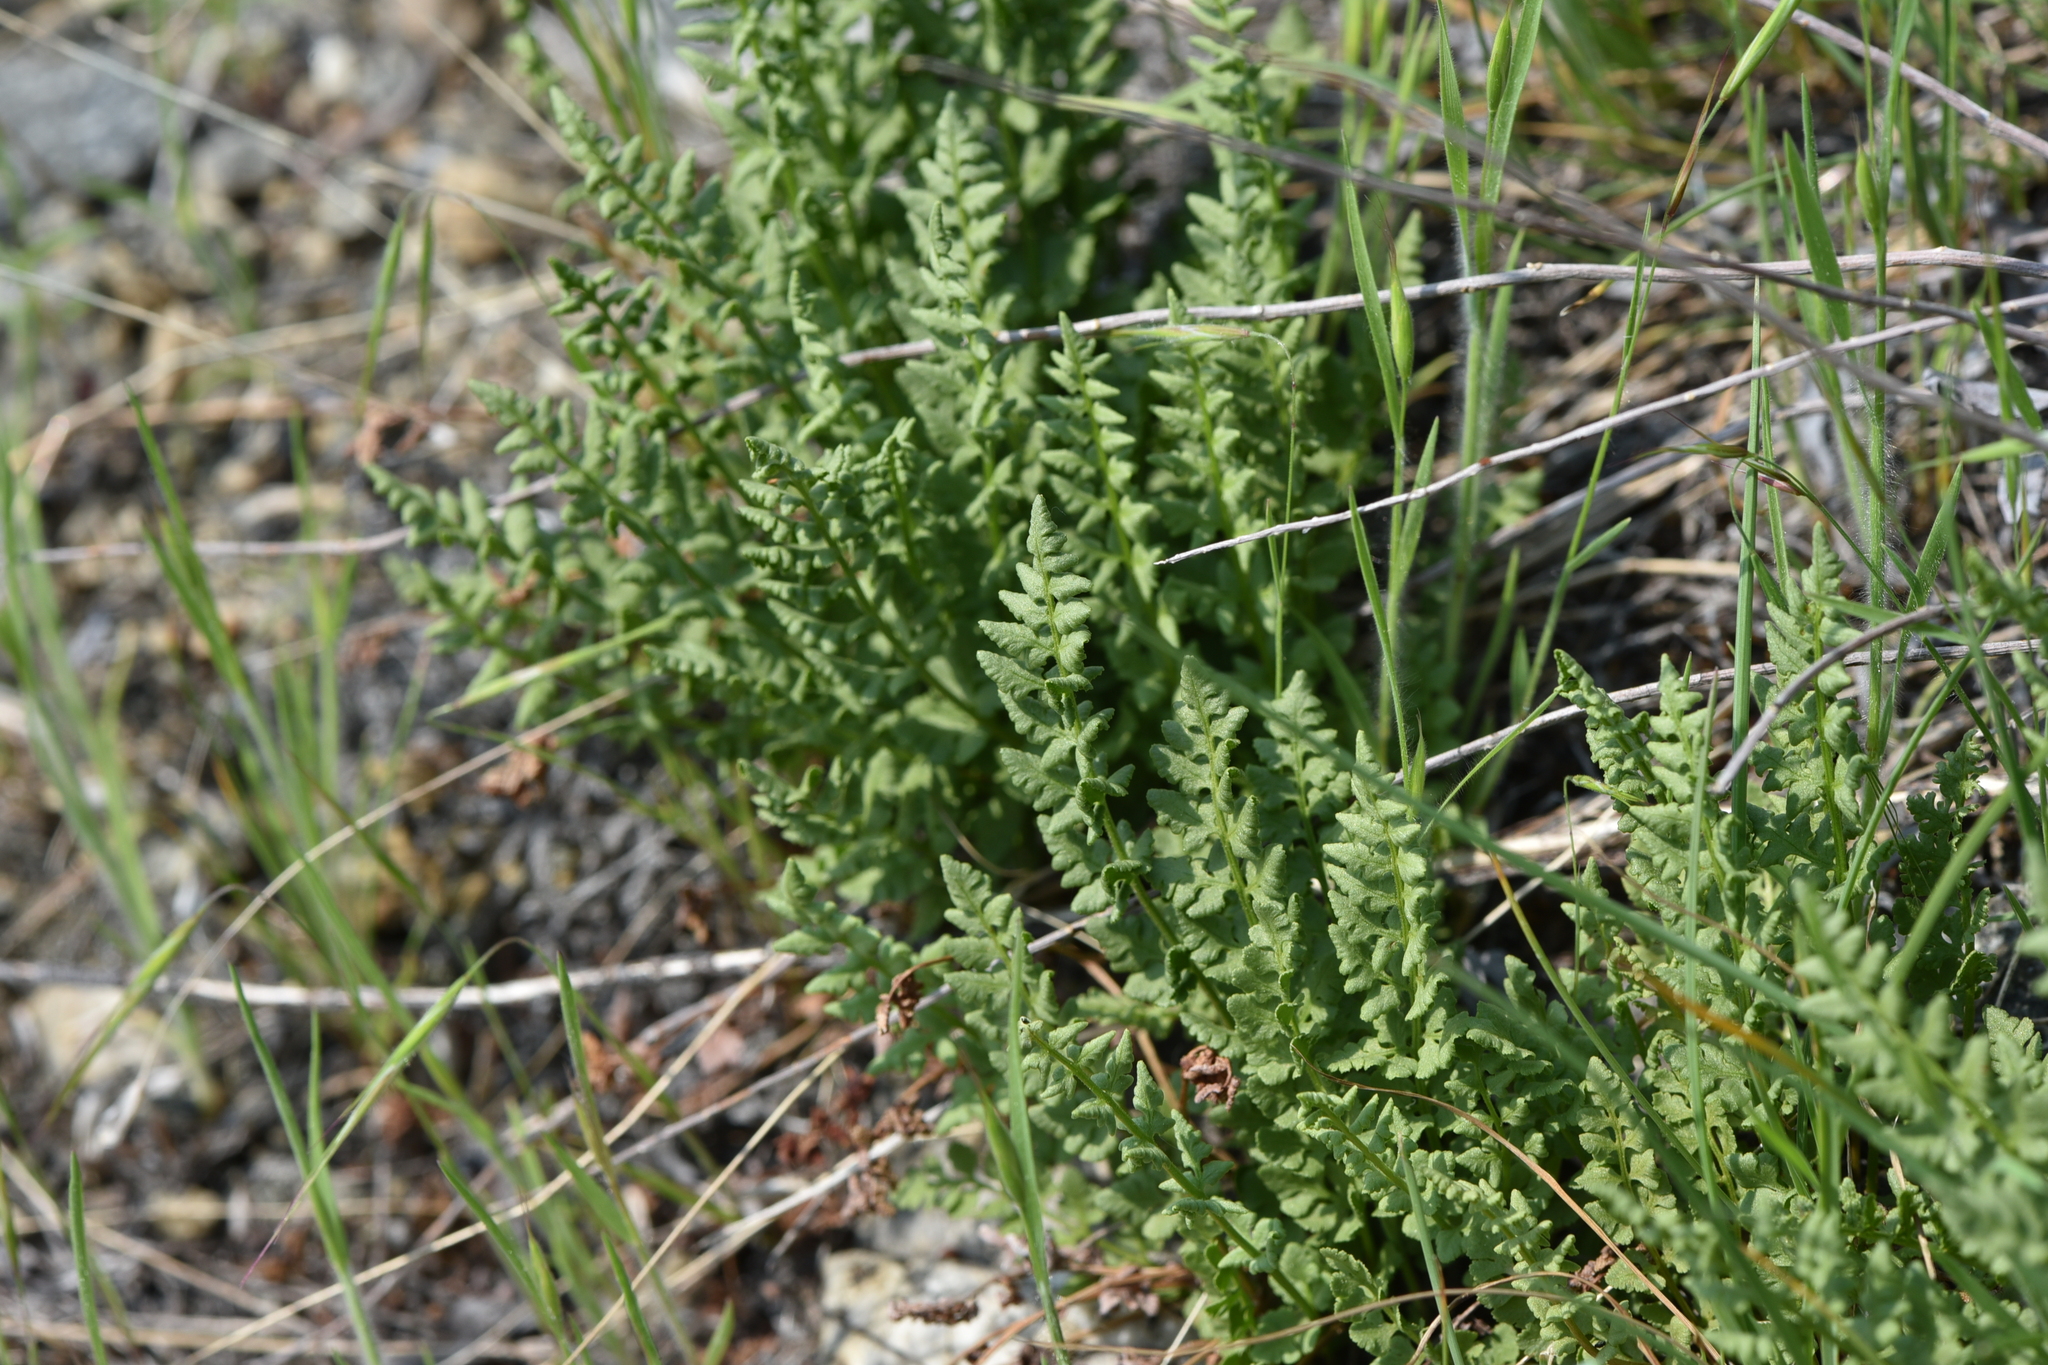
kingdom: Plantae
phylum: Tracheophyta
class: Polypodiopsida
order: Polypodiales
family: Woodsiaceae
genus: Physematium
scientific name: Physematium oreganum
